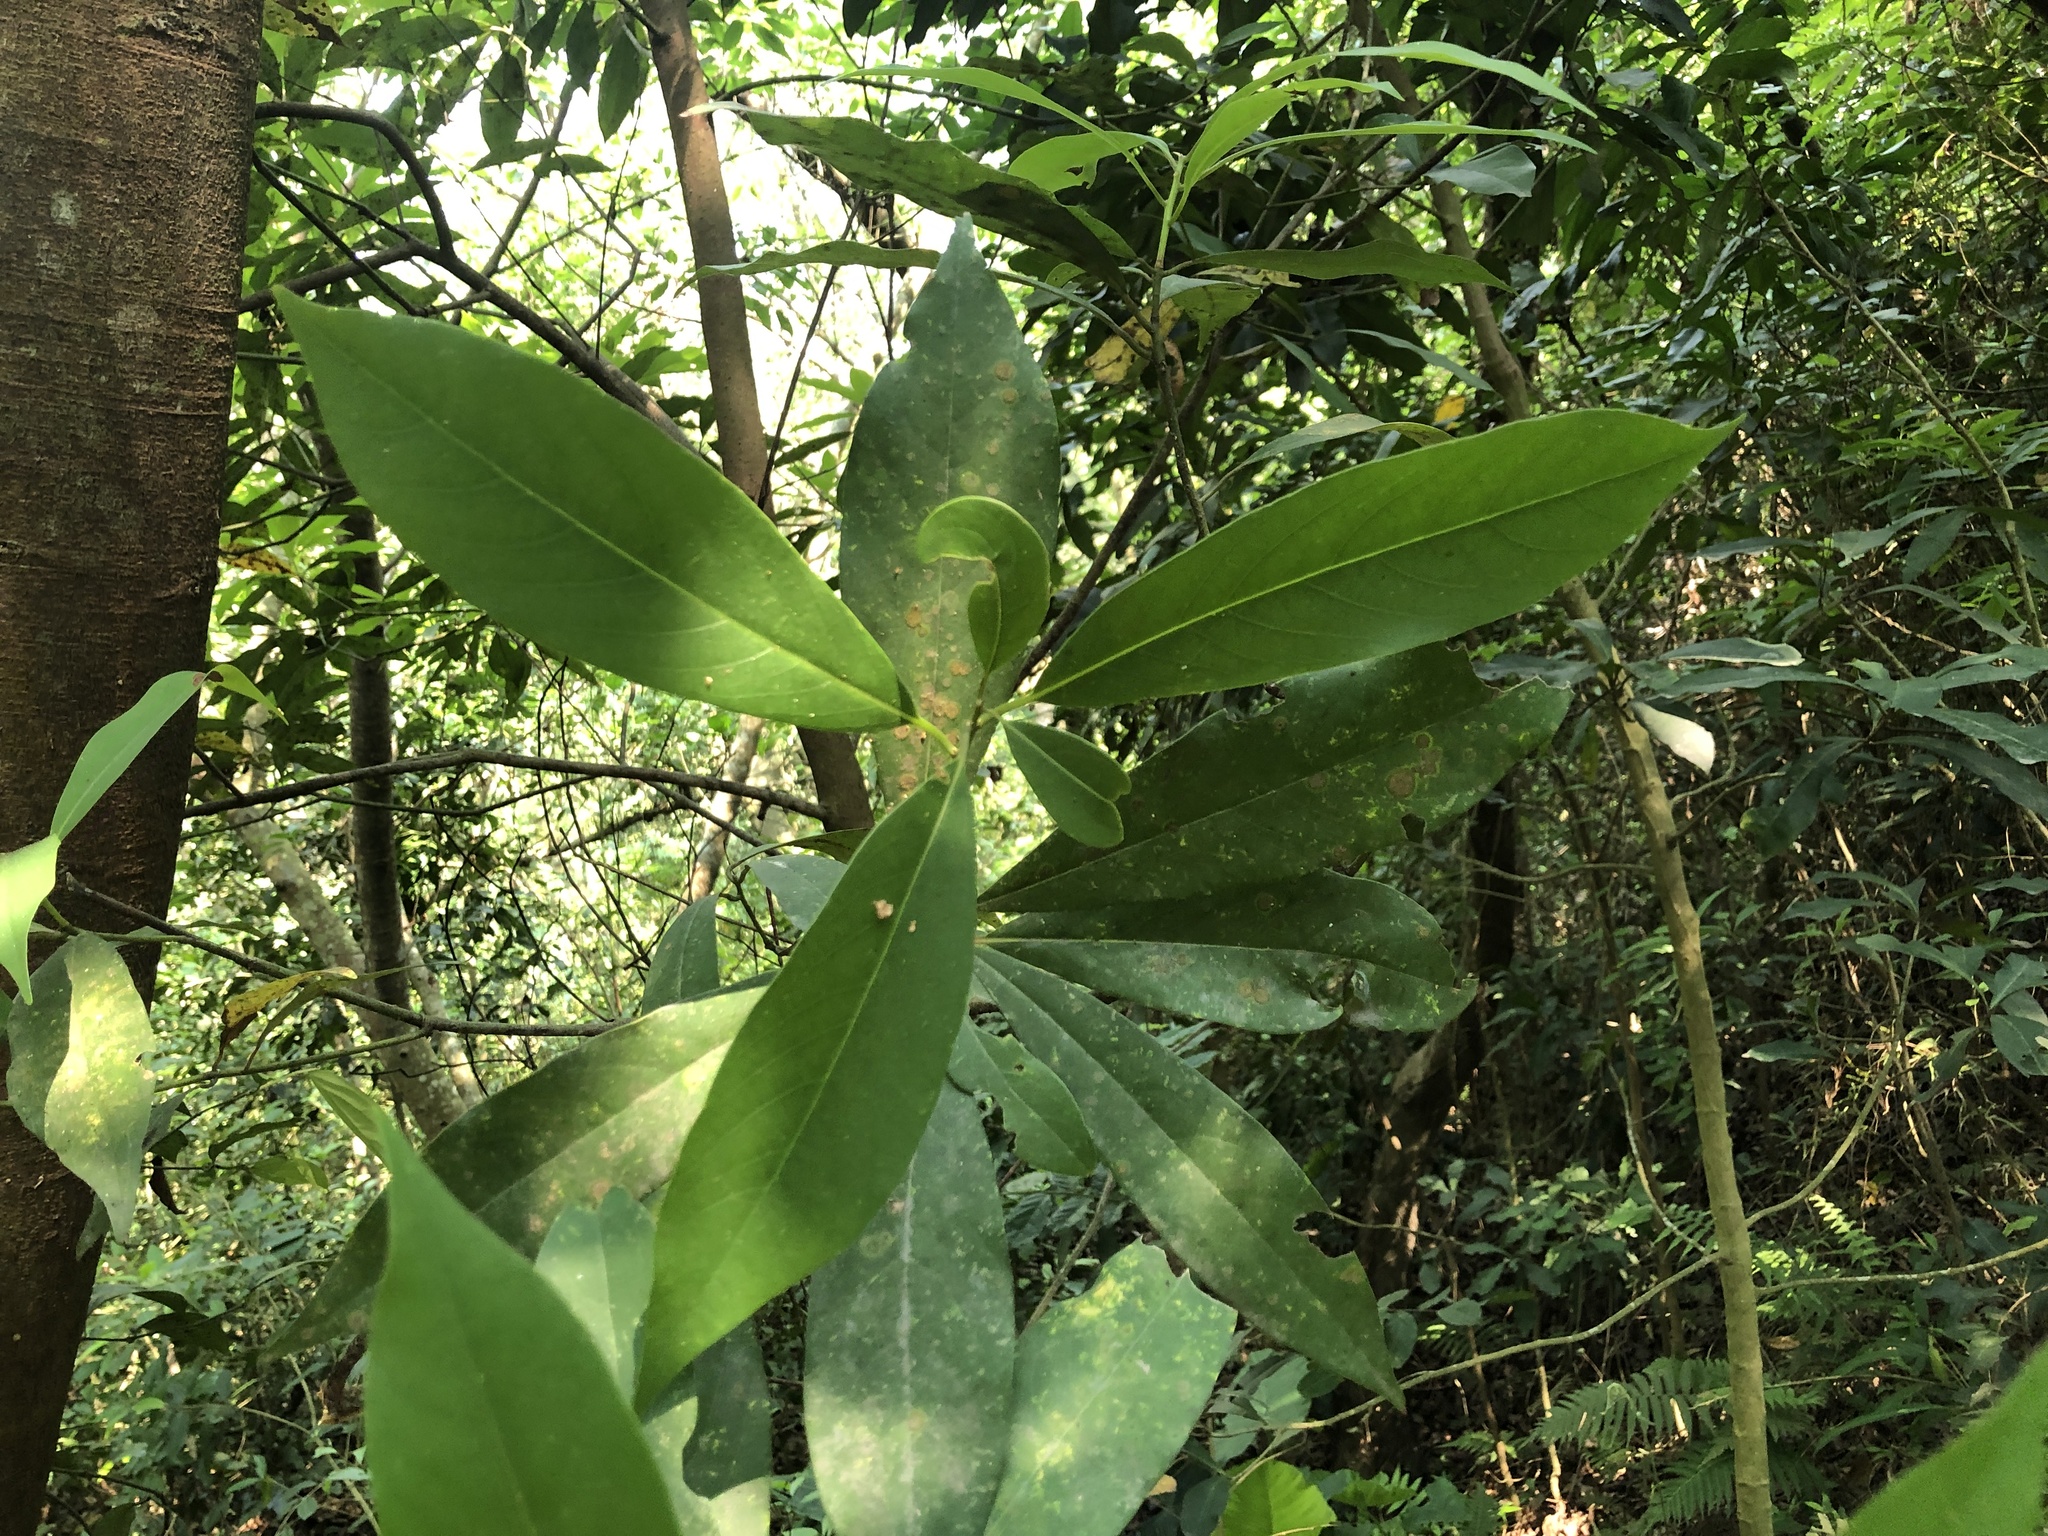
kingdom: Plantae
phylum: Tracheophyta
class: Magnoliopsida
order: Laurales
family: Lauraceae
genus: Machilus
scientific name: Machilus zuihoensis
